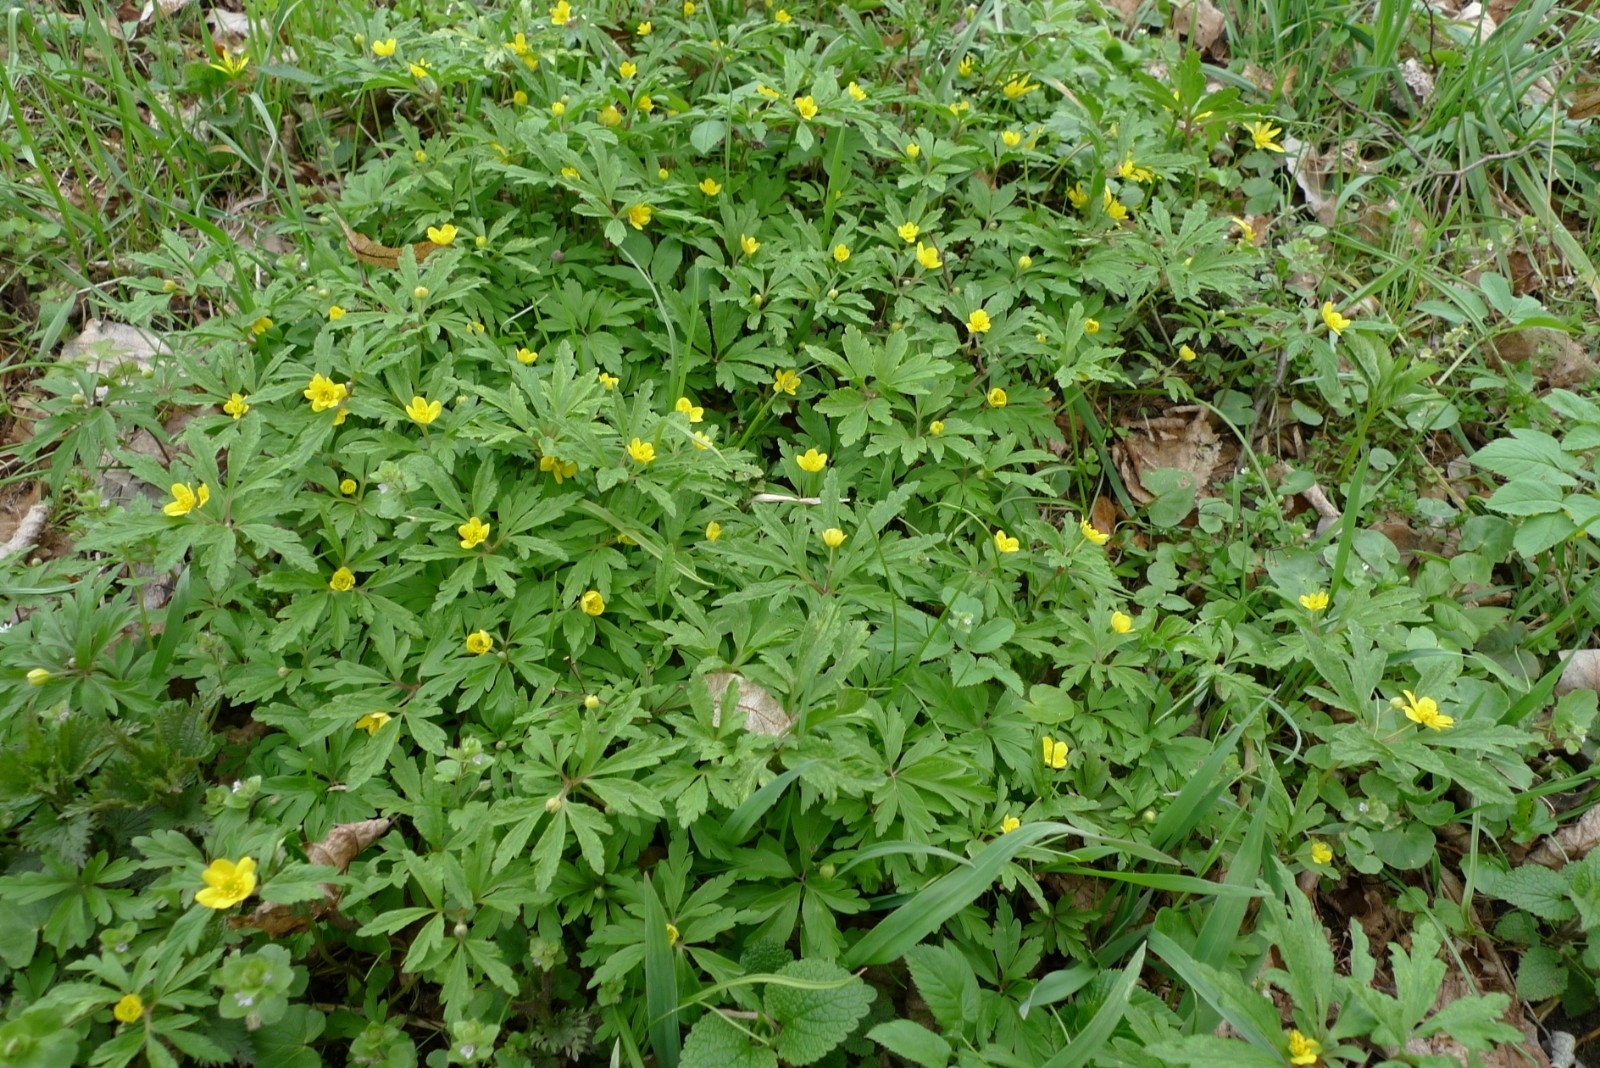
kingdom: Plantae
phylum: Tracheophyta
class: Magnoliopsida
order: Ranunculales
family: Ranunculaceae
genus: Anemone
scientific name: Anemone ranunculoides
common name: Yellow anemone
